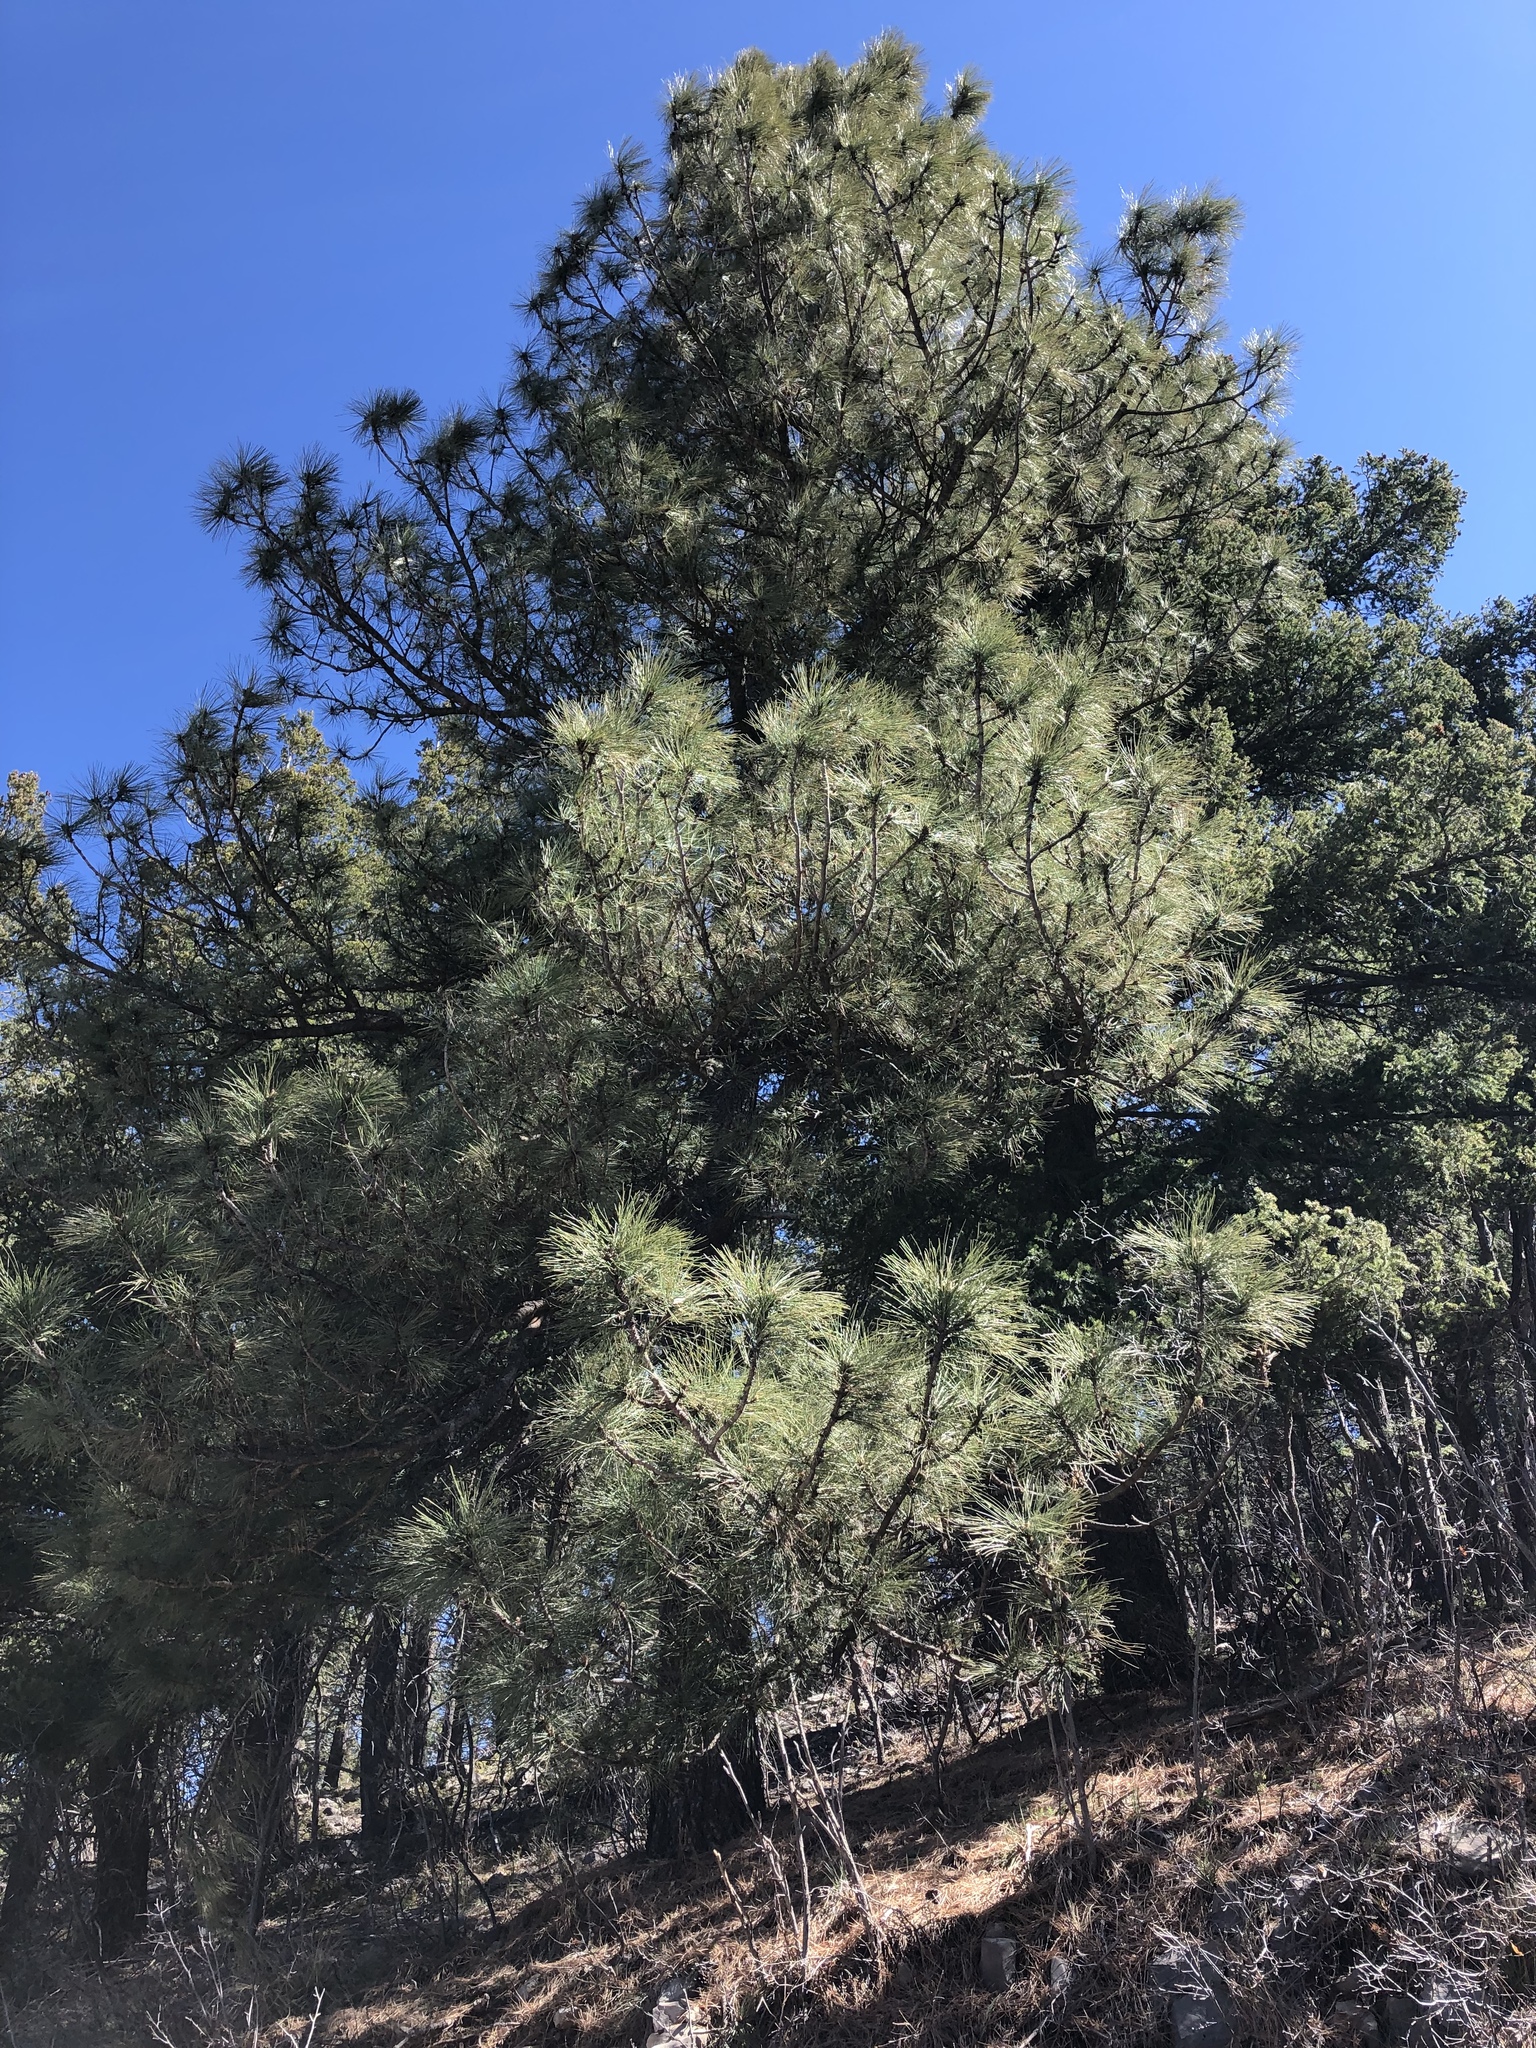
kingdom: Plantae
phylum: Tracheophyta
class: Pinopsida
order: Pinales
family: Pinaceae
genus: Pinus
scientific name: Pinus ponderosa
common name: Western yellow-pine
